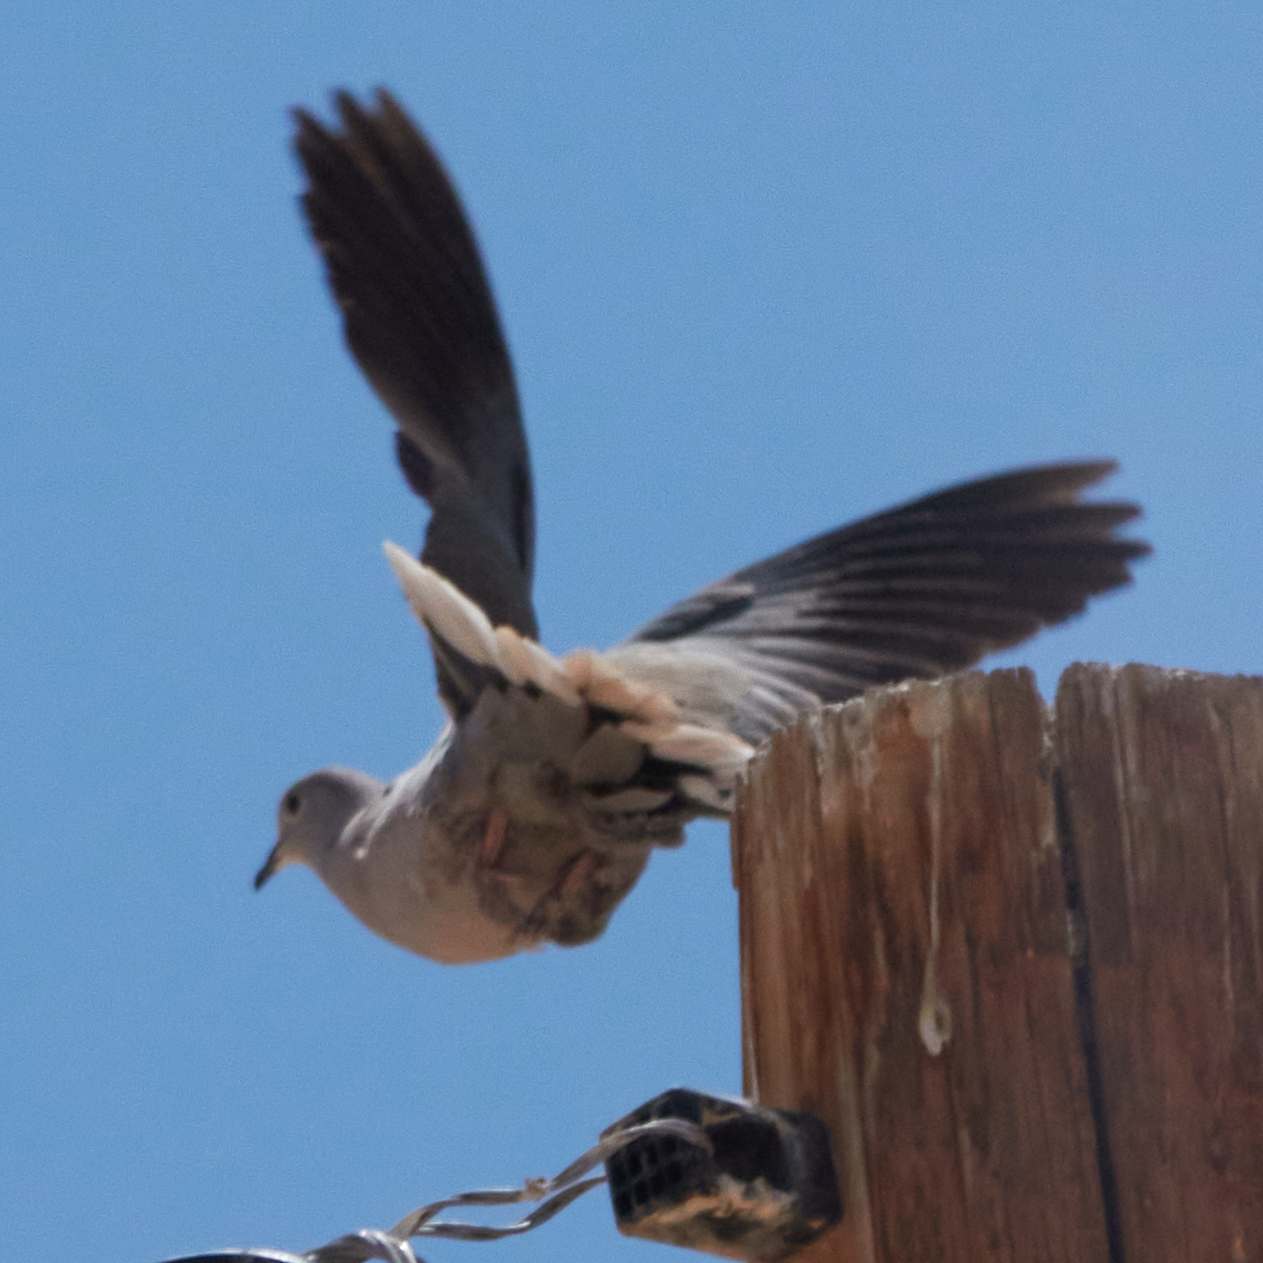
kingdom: Animalia
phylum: Chordata
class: Aves
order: Columbiformes
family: Columbidae
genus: Streptopelia
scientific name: Streptopelia decaocto
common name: Eurasian collared dove
